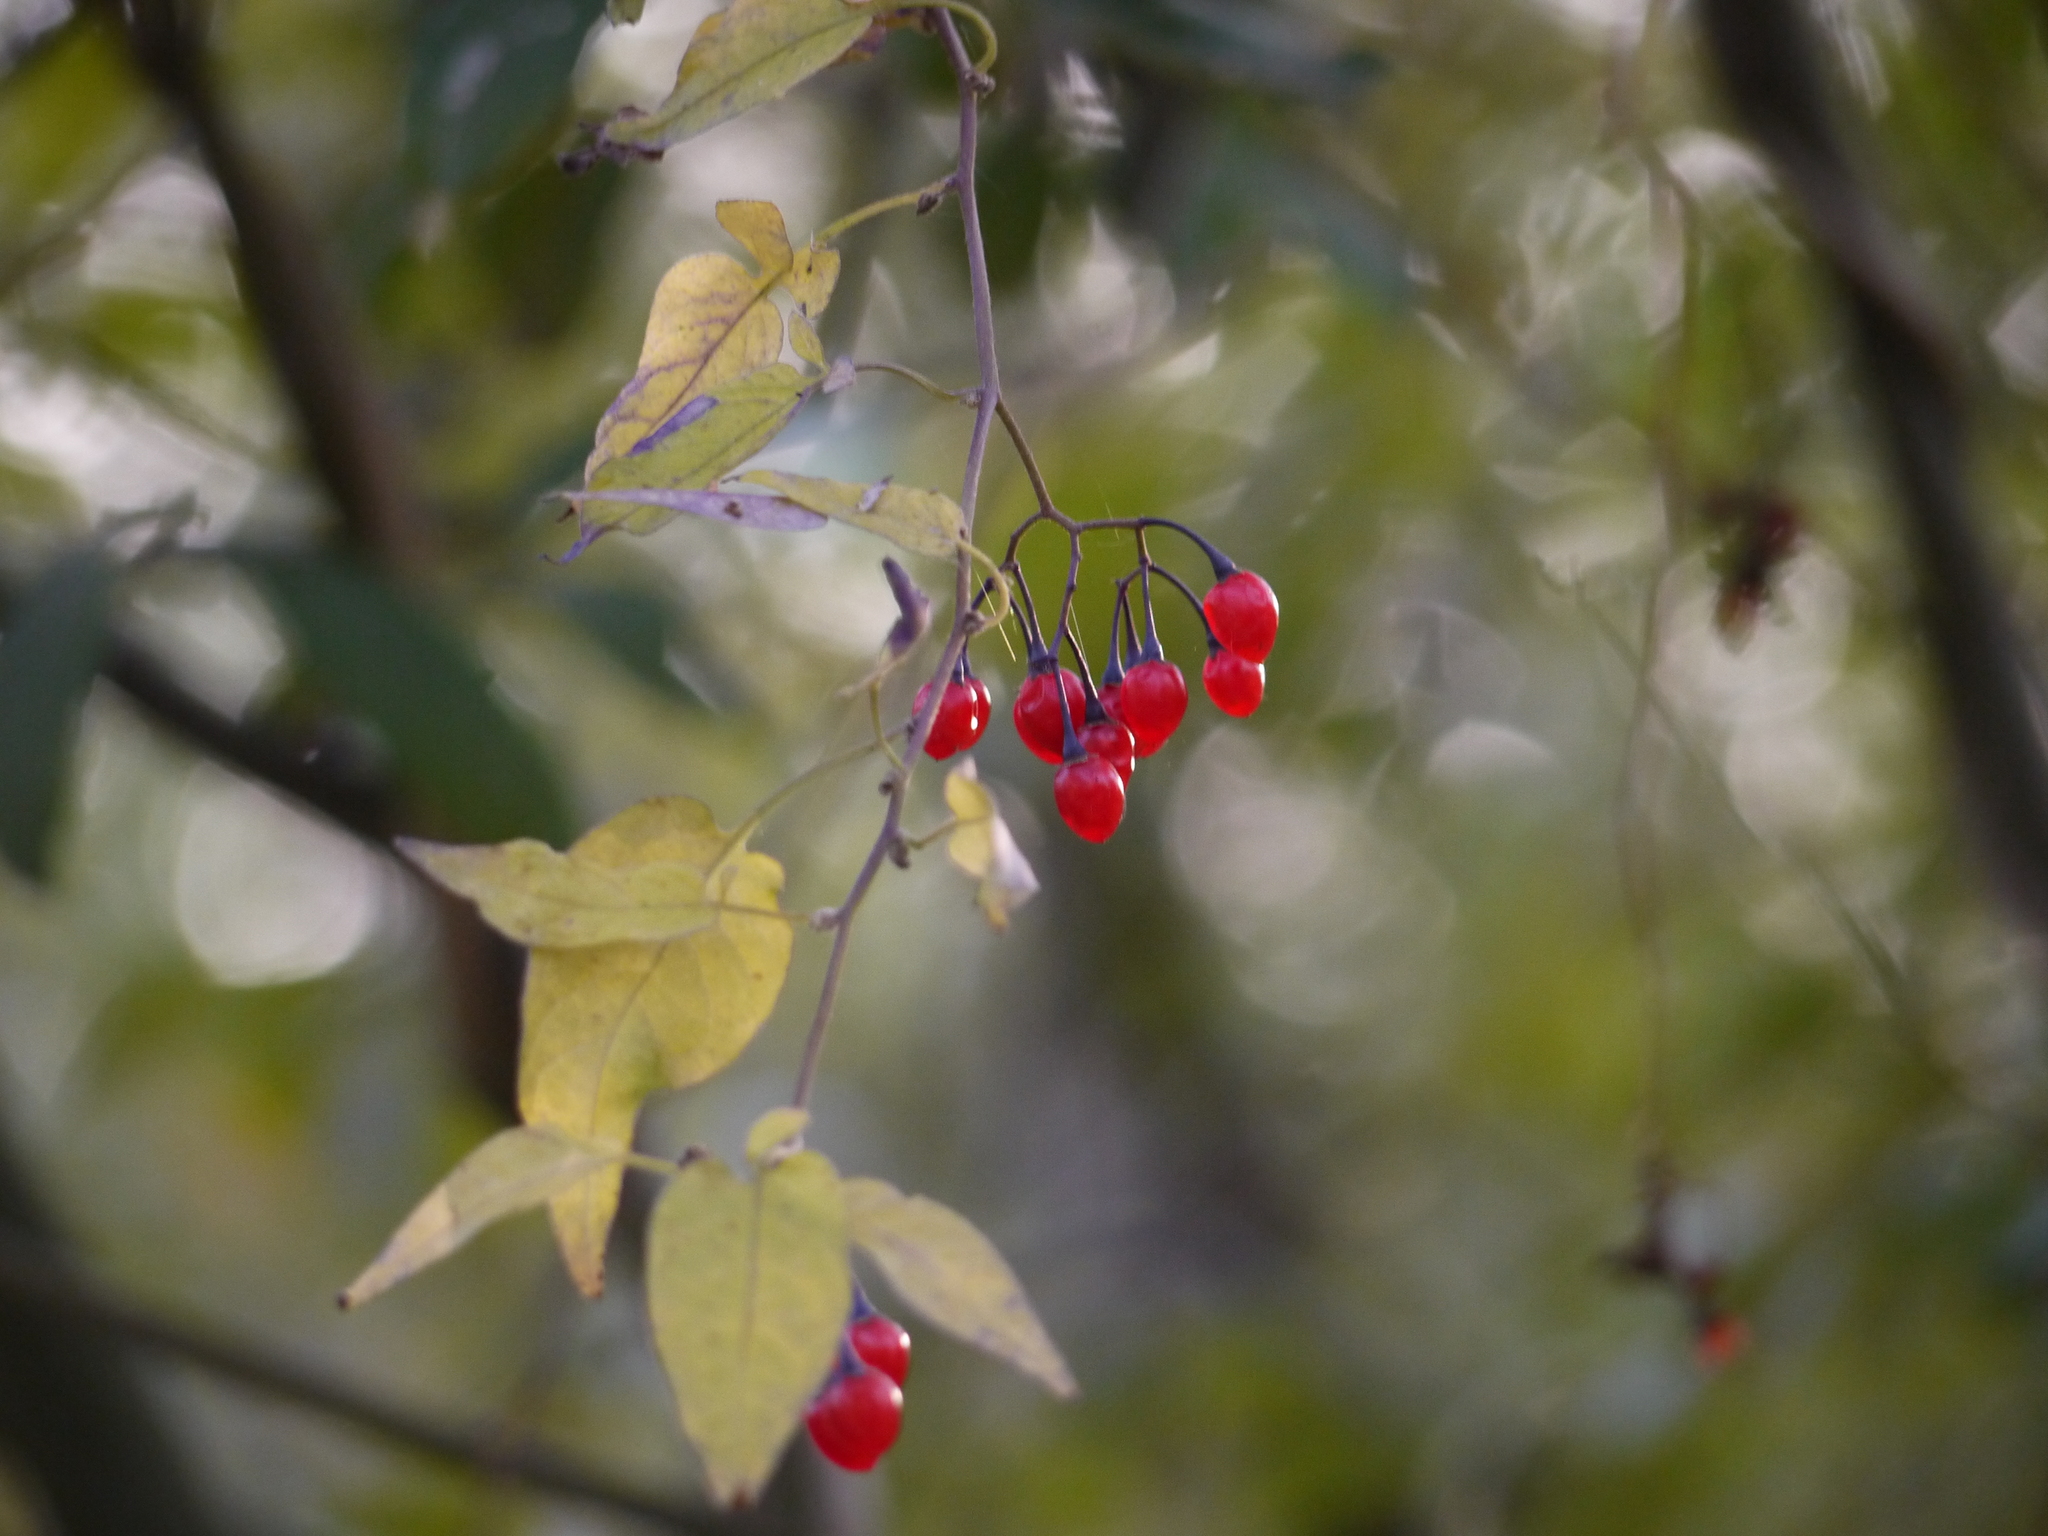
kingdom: Plantae
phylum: Tracheophyta
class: Magnoliopsida
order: Solanales
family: Solanaceae
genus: Solanum
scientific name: Solanum dulcamara
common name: Climbing nightshade
